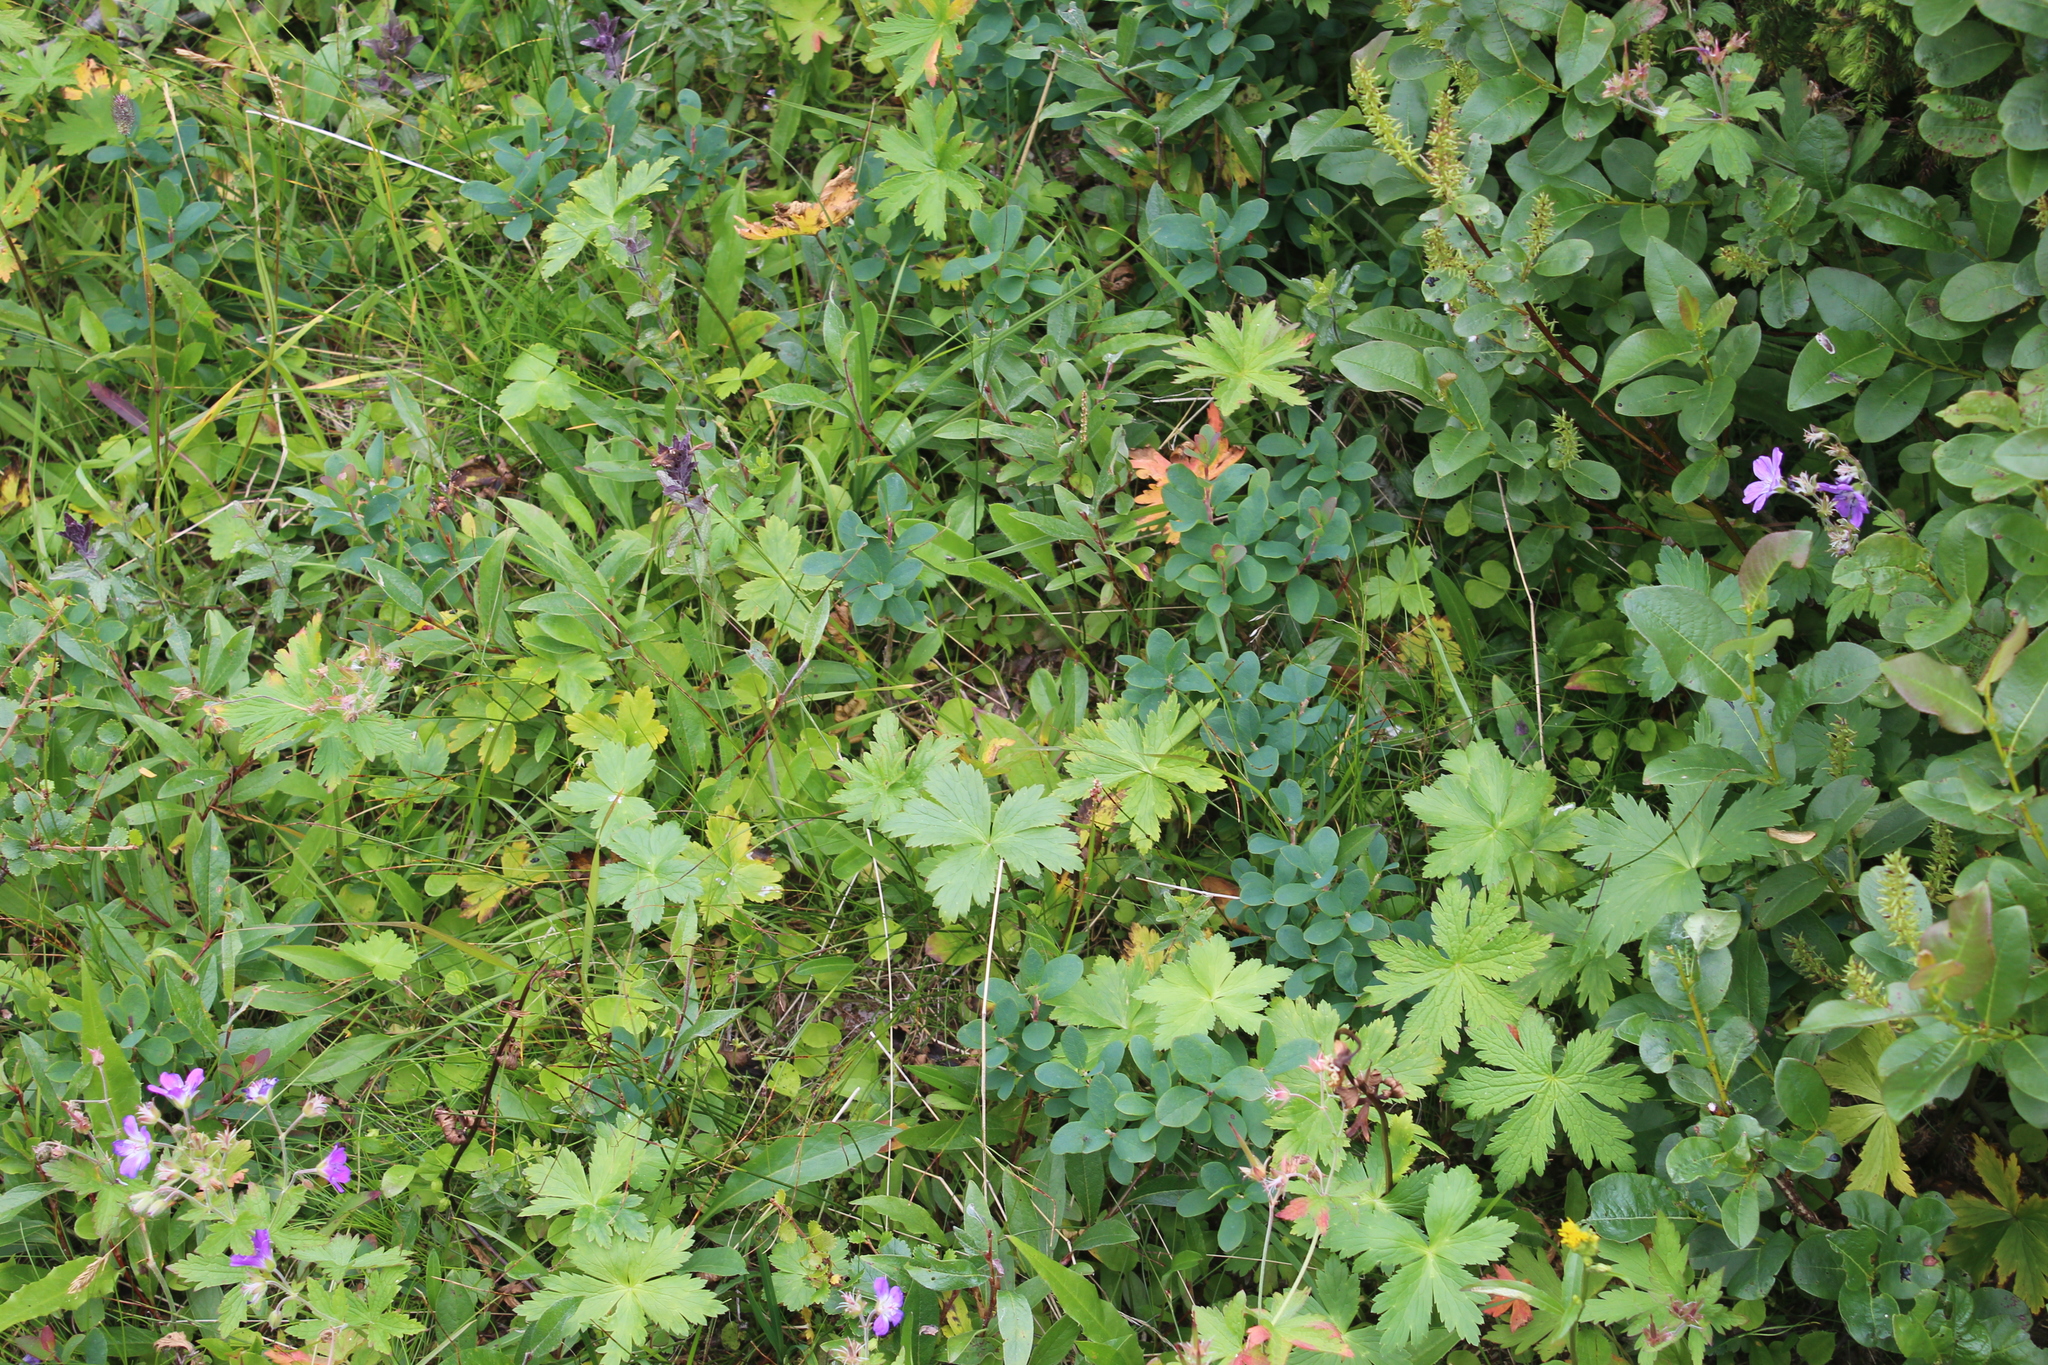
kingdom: Plantae
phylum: Tracheophyta
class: Magnoliopsida
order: Ranunculales
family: Ranunculaceae
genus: Trollius
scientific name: Trollius europaeus
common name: European globeflower
